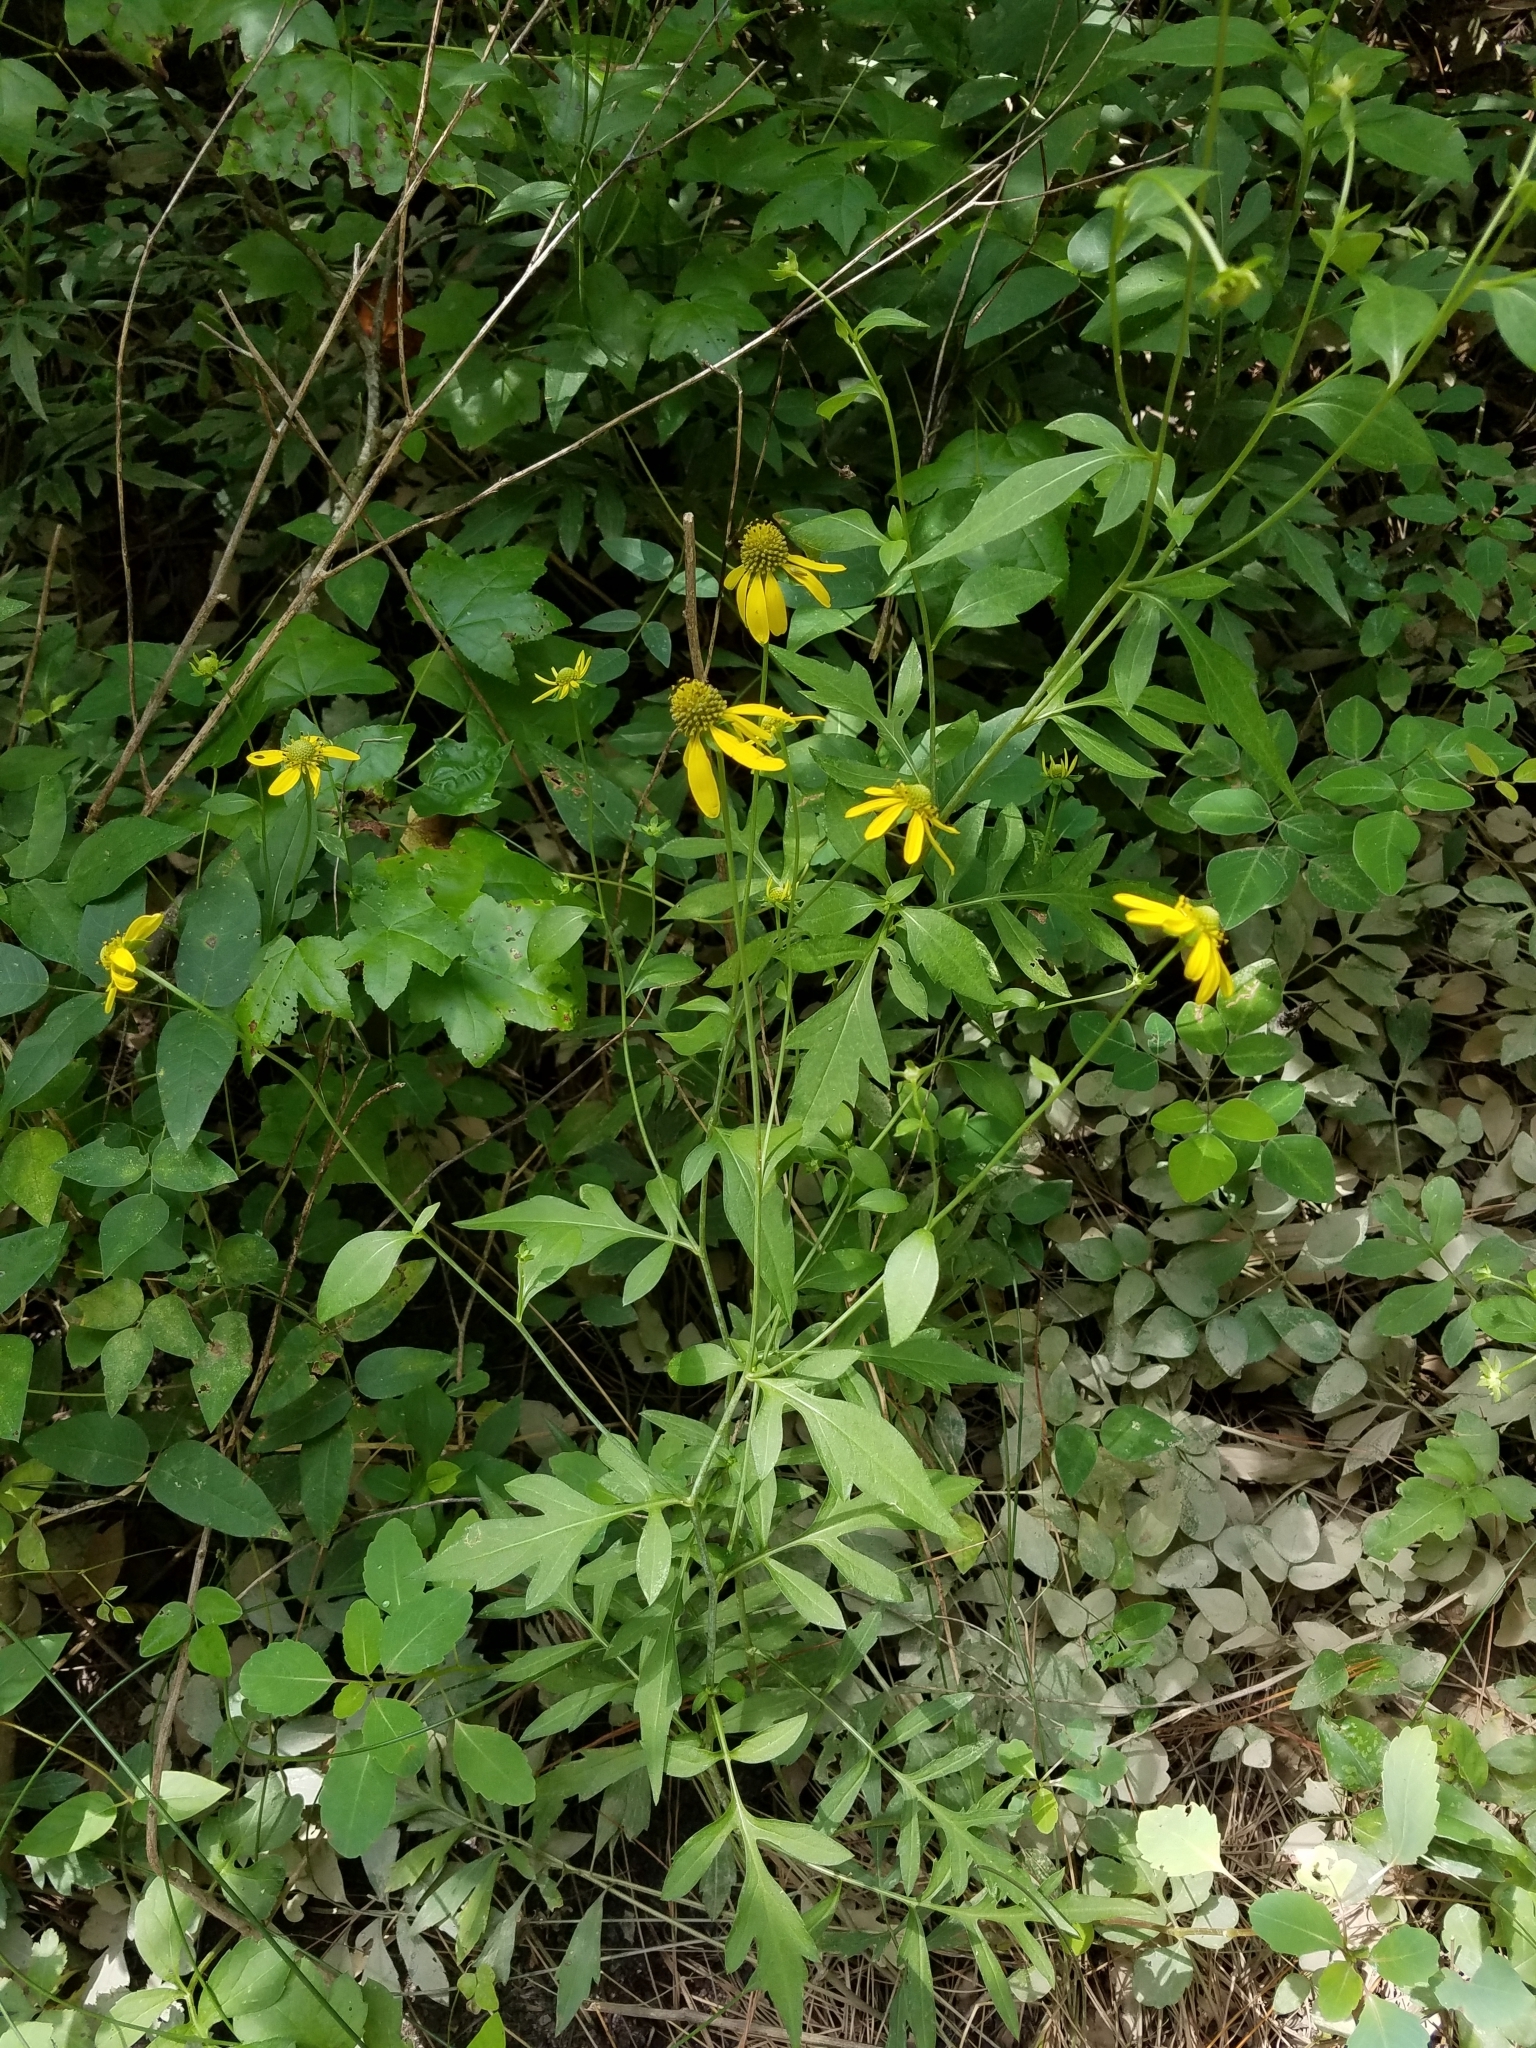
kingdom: Plantae
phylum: Tracheophyta
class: Magnoliopsida
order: Asterales
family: Asteraceae
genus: Rudbeckia
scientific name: Rudbeckia laciniata
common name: Coneflower
